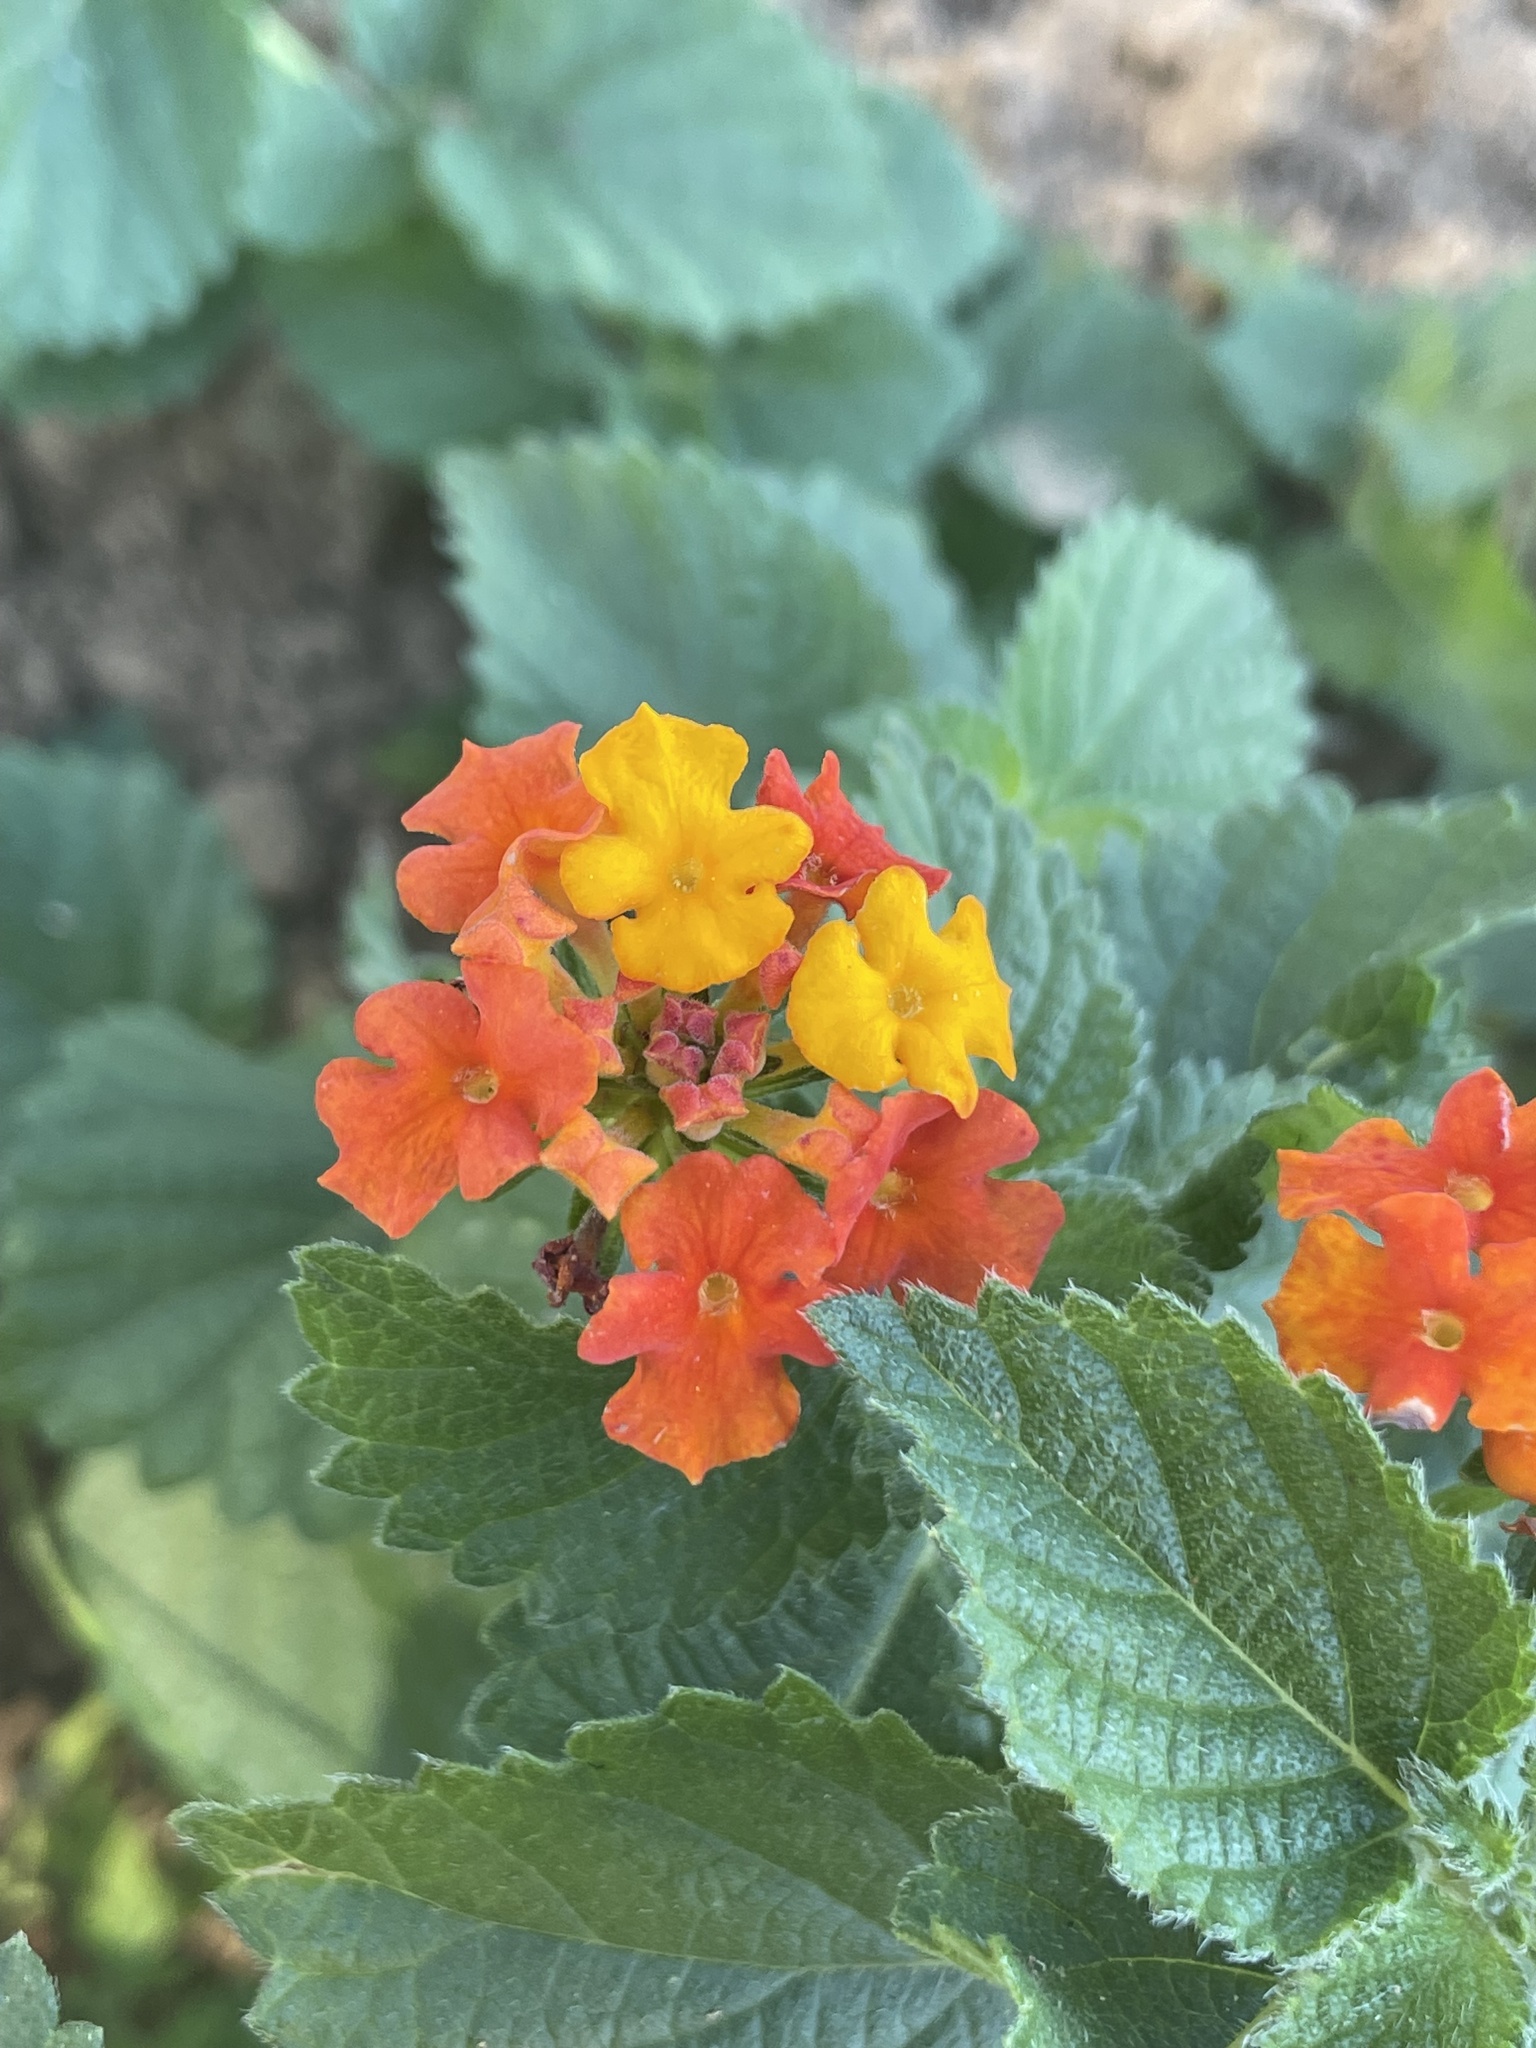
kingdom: Plantae
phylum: Tracheophyta
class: Magnoliopsida
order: Lamiales
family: Verbenaceae
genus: Lantana
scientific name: Lantana urticoides
